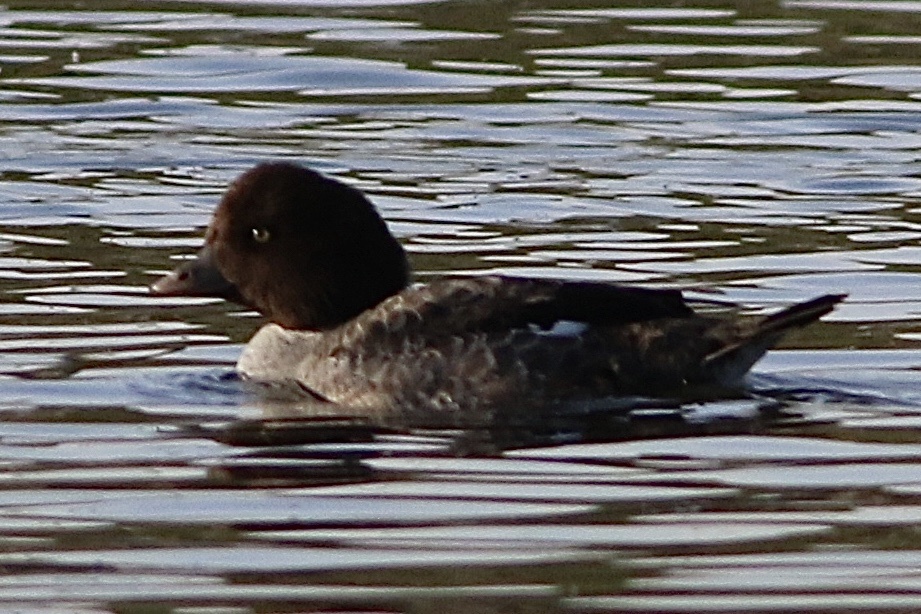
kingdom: Animalia
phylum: Chordata
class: Aves
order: Anseriformes
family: Anatidae
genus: Bucephala
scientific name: Bucephala islandica
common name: Barrow's goldeneye
